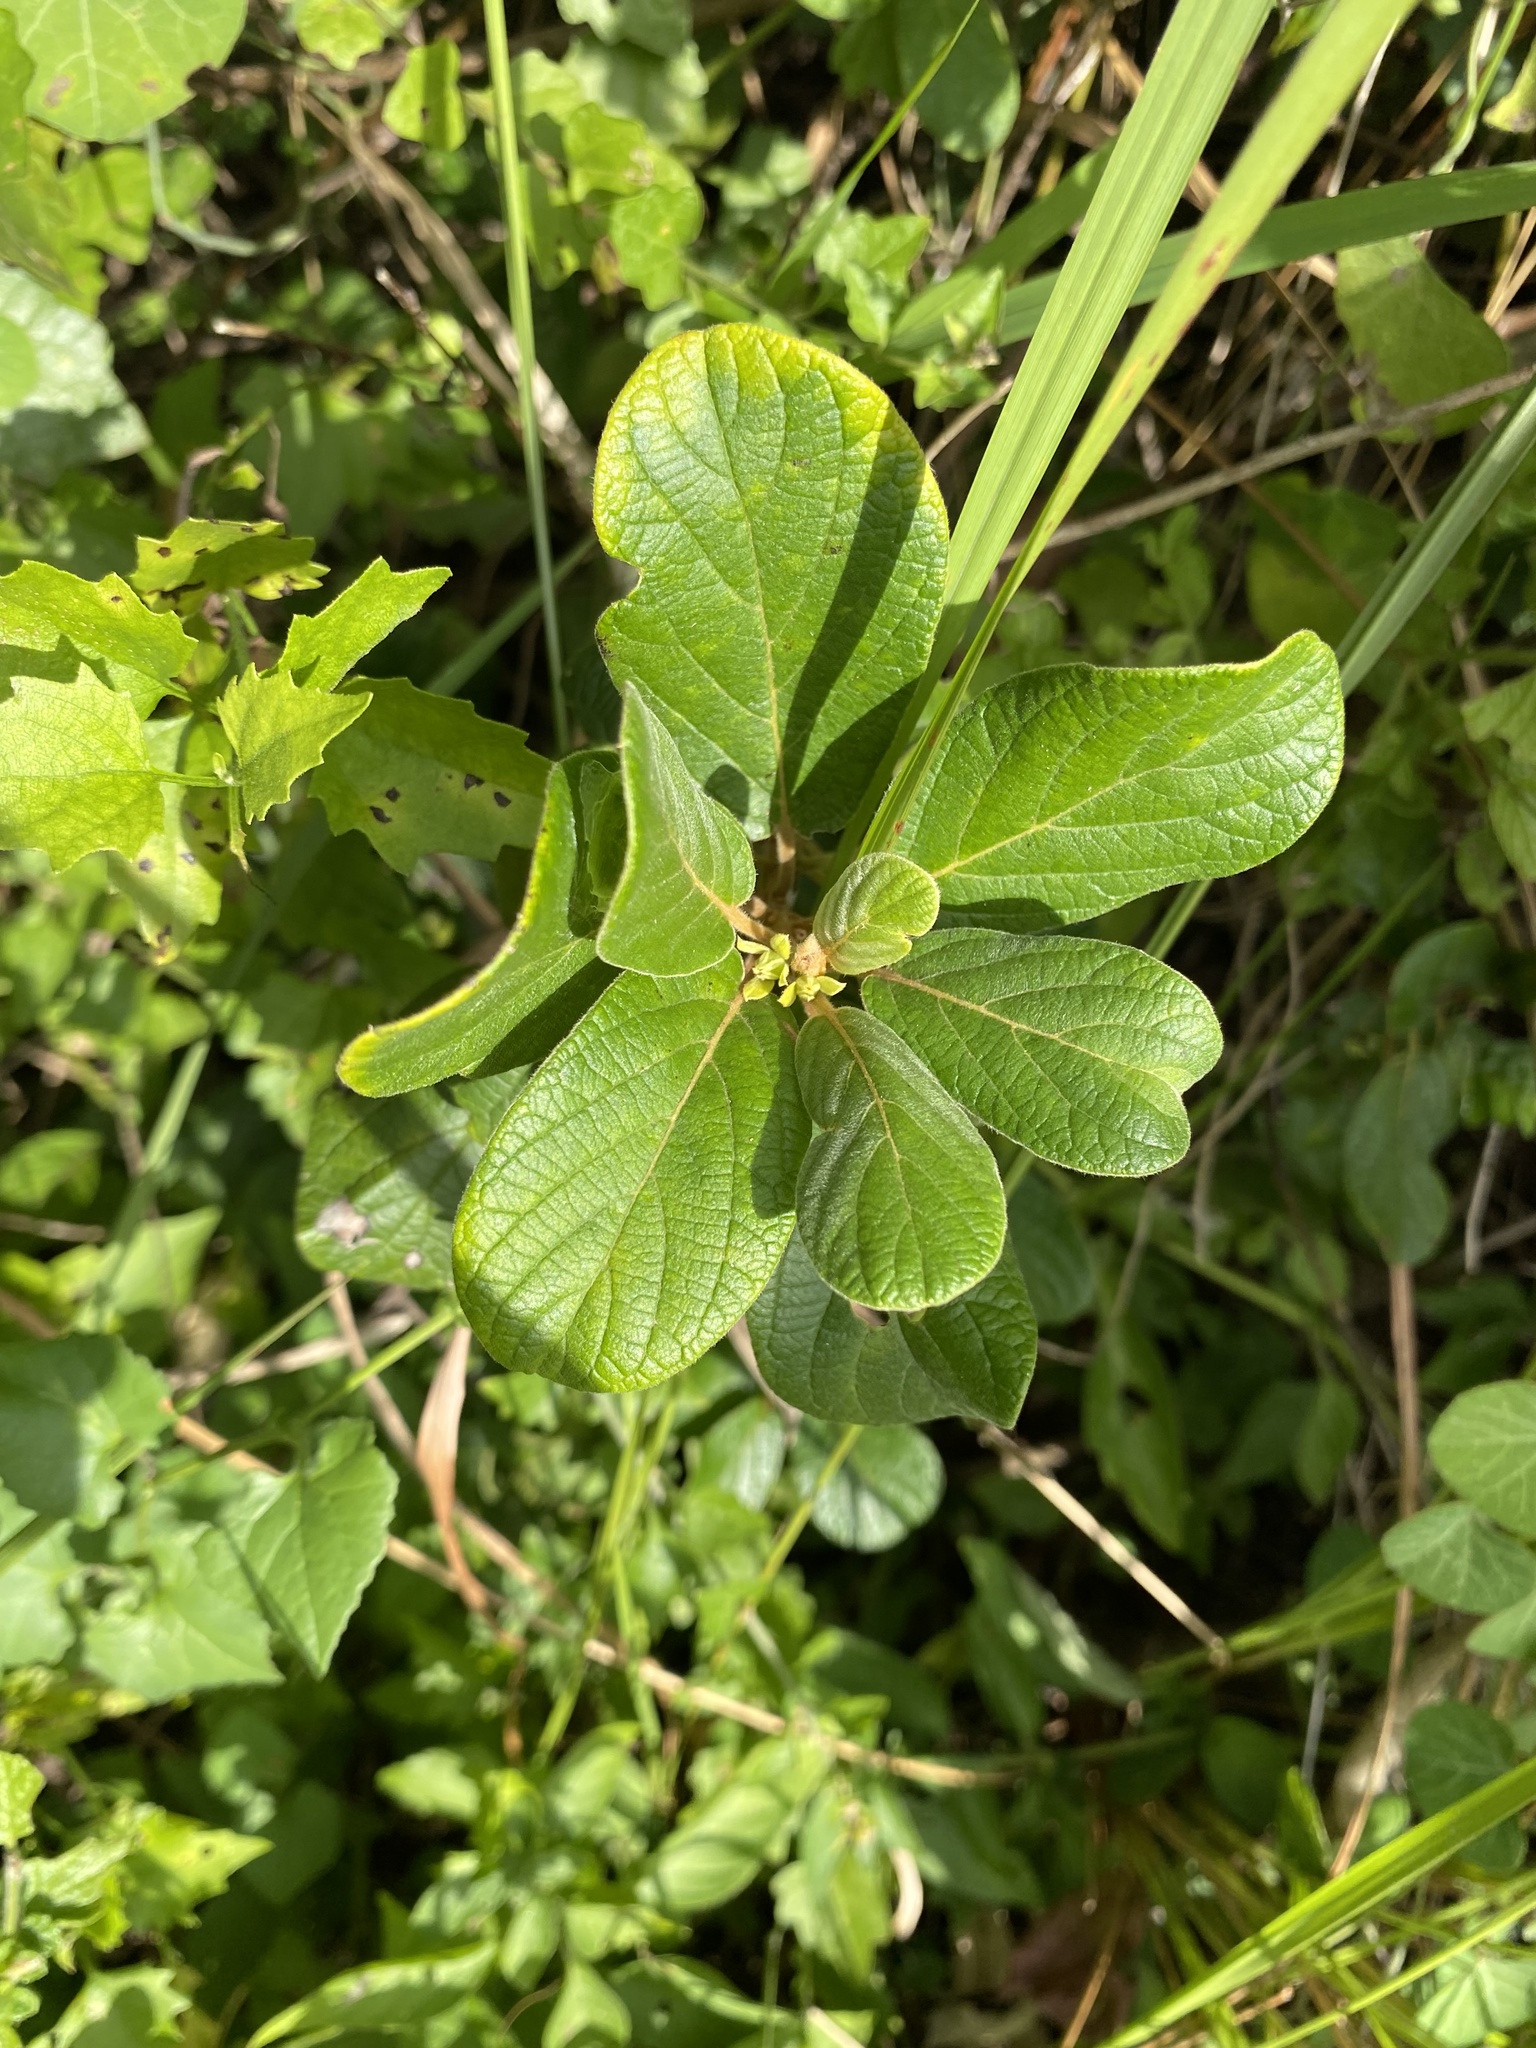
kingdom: Plantae
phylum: Tracheophyta
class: Magnoliopsida
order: Ericales
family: Ebenaceae
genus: Diospyros
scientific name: Diospyros villosa
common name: Hairy star-apple
